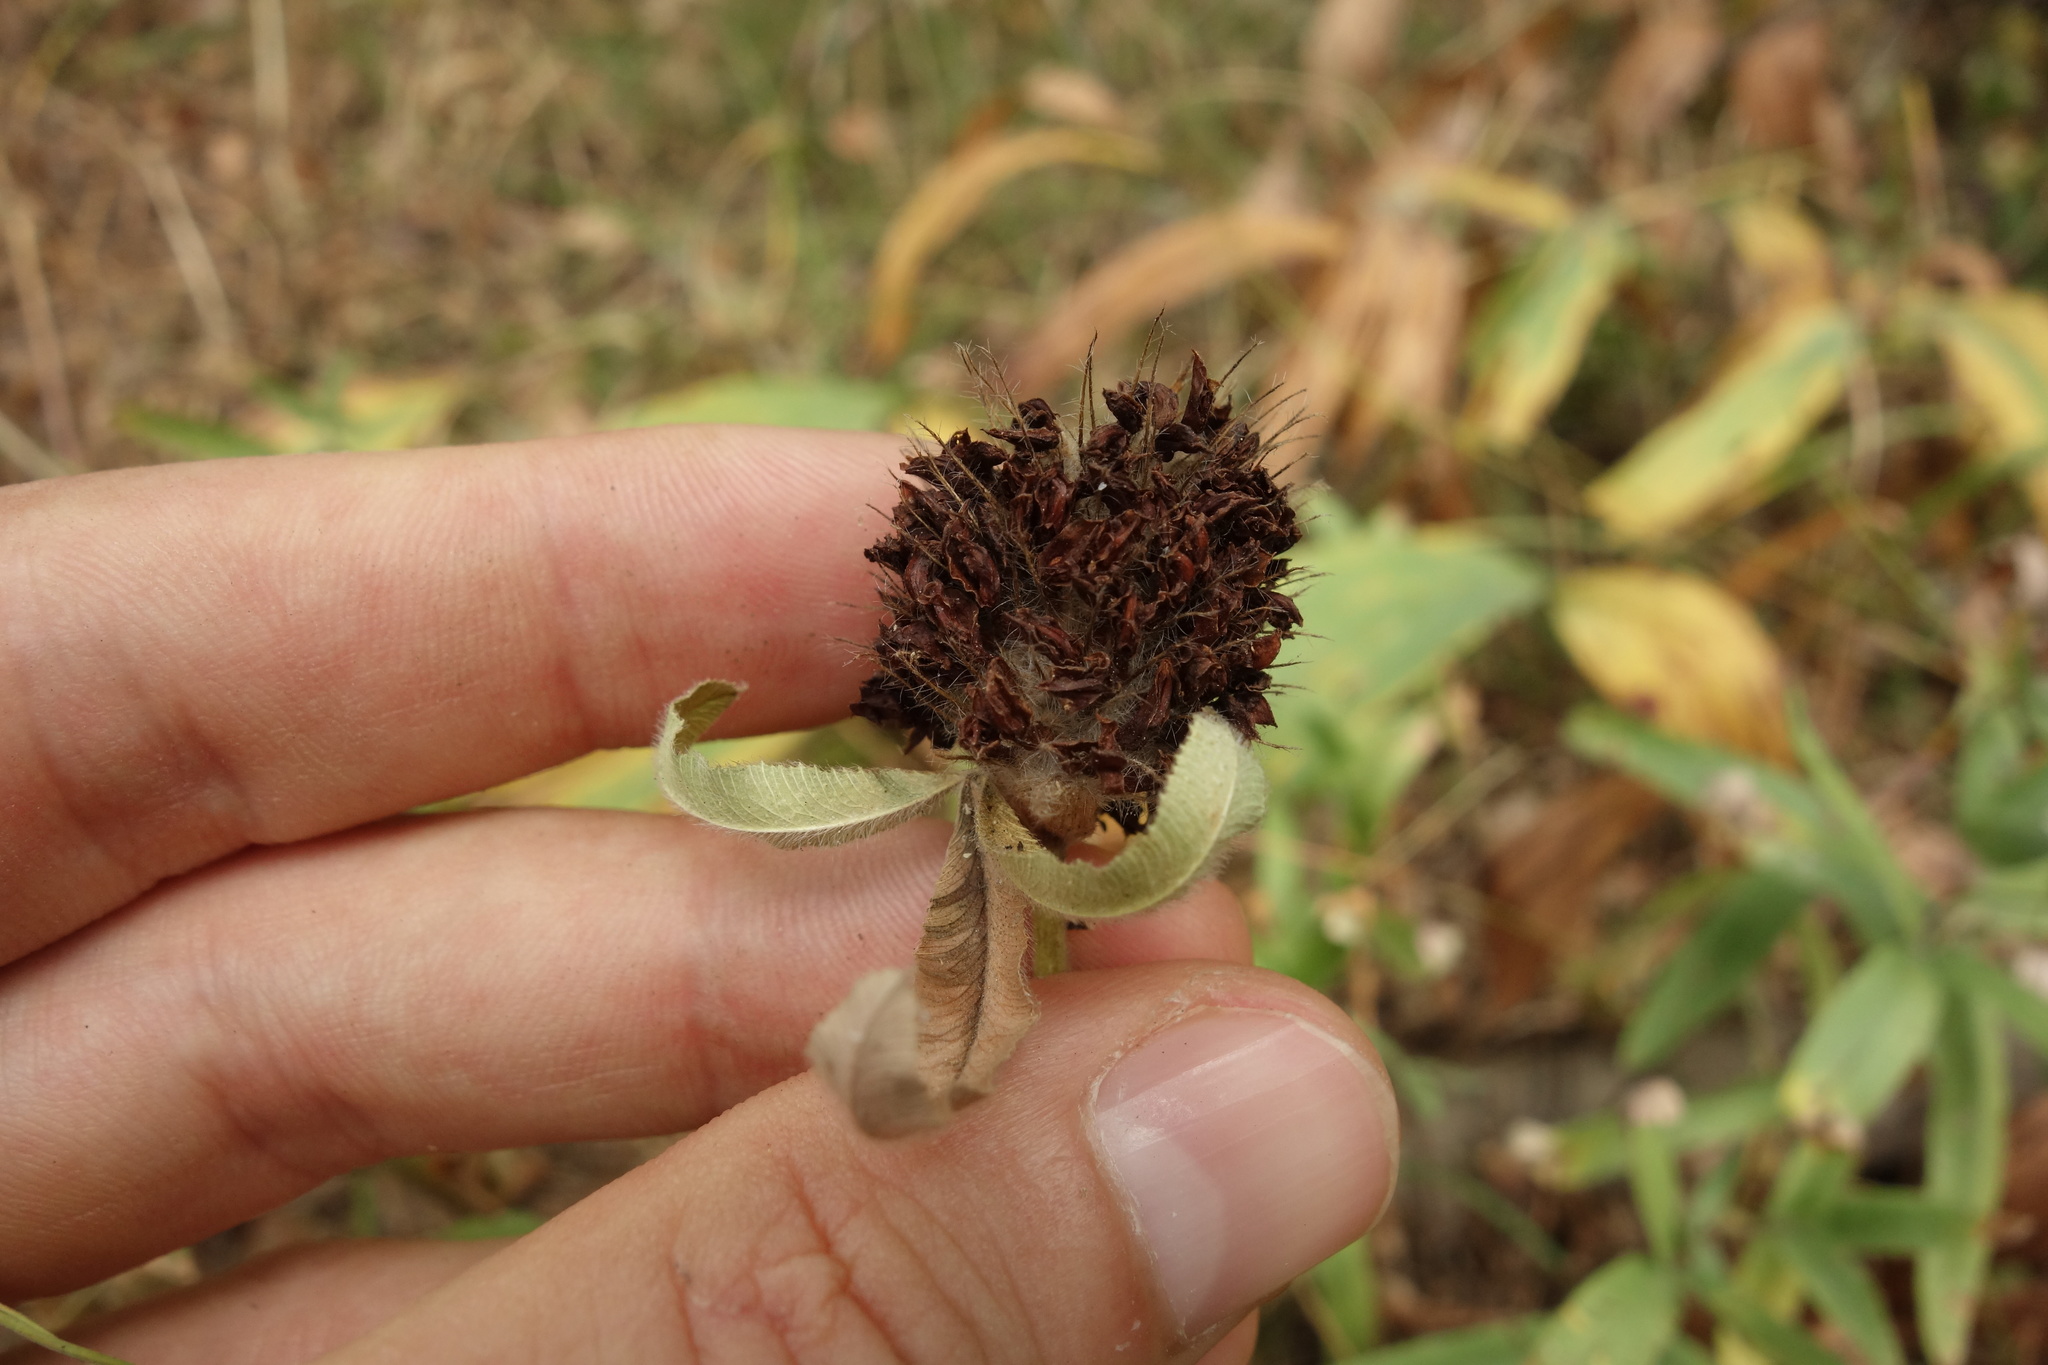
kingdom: Plantae
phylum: Tracheophyta
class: Magnoliopsida
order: Fabales
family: Fabaceae
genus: Trifolium
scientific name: Trifolium alpestre
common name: Owl-head clover
